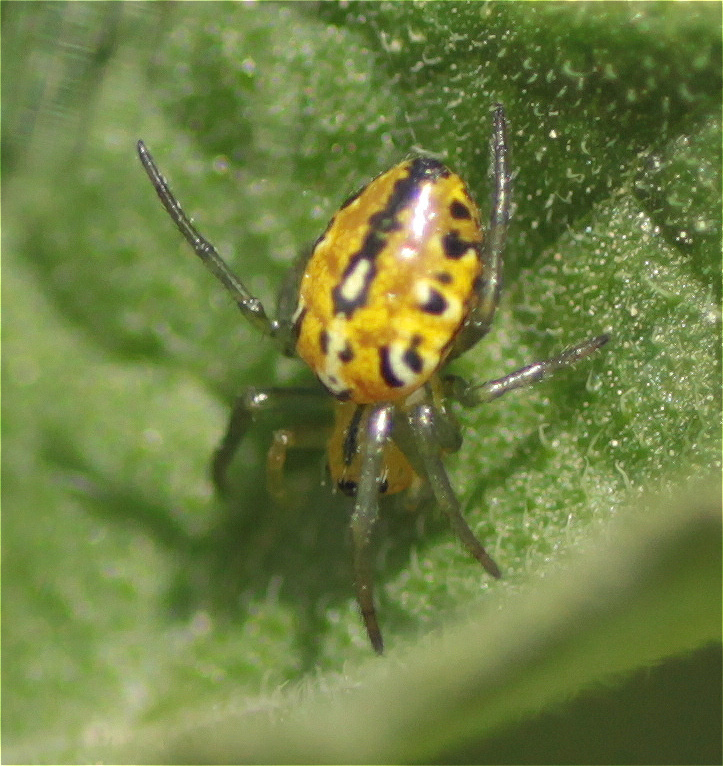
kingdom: Animalia
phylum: Arthropoda
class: Arachnida
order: Araneae
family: Araneidae
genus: Alpaida
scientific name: Alpaida variabilis
